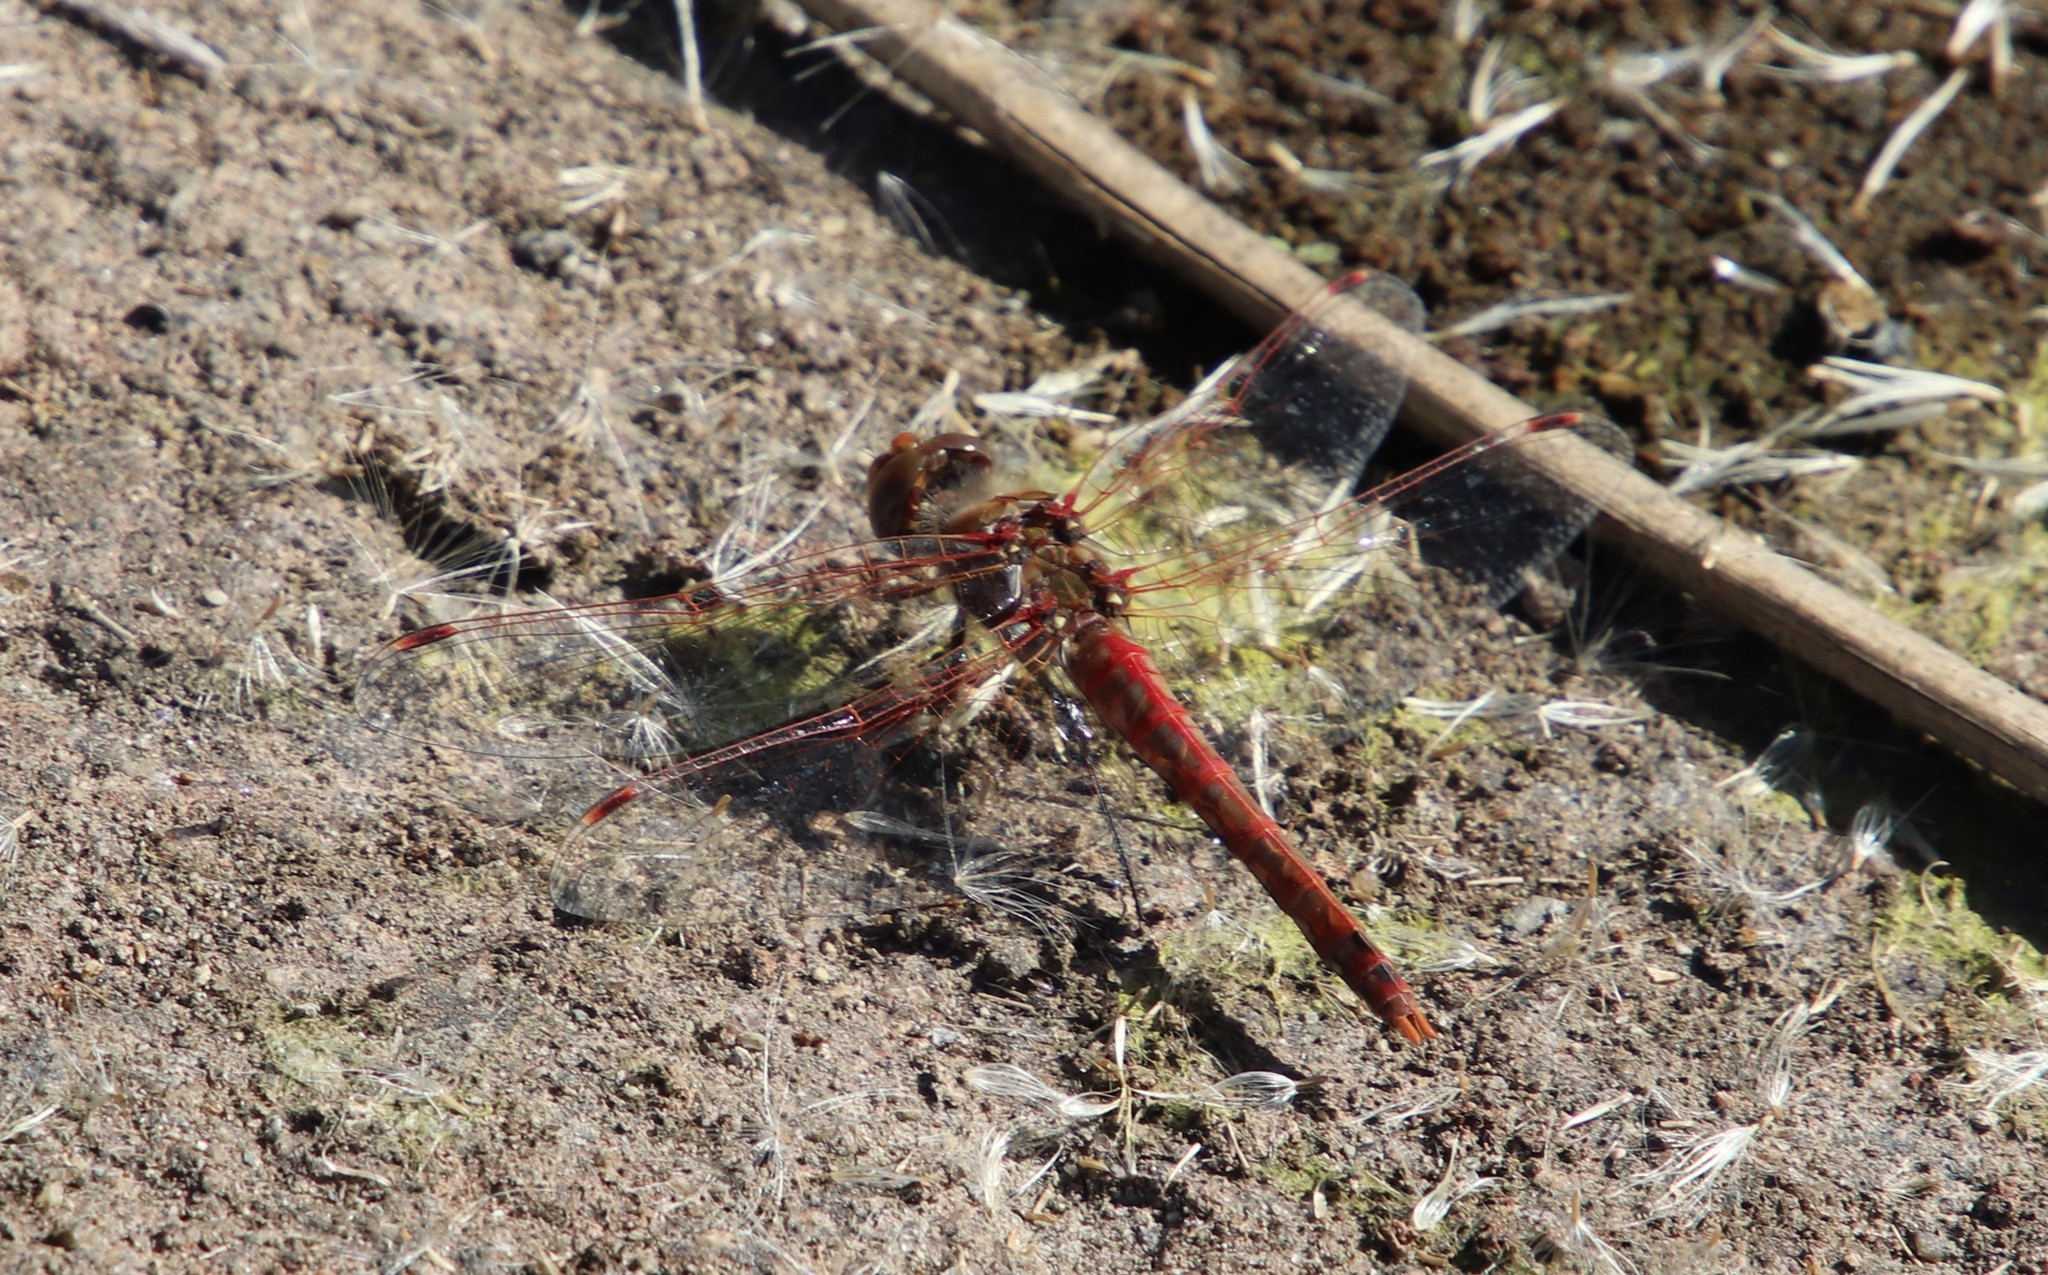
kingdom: Animalia
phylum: Arthropoda
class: Insecta
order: Odonata
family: Libellulidae
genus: Sympetrum
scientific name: Sympetrum corruptum
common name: Variegated meadowhawk
